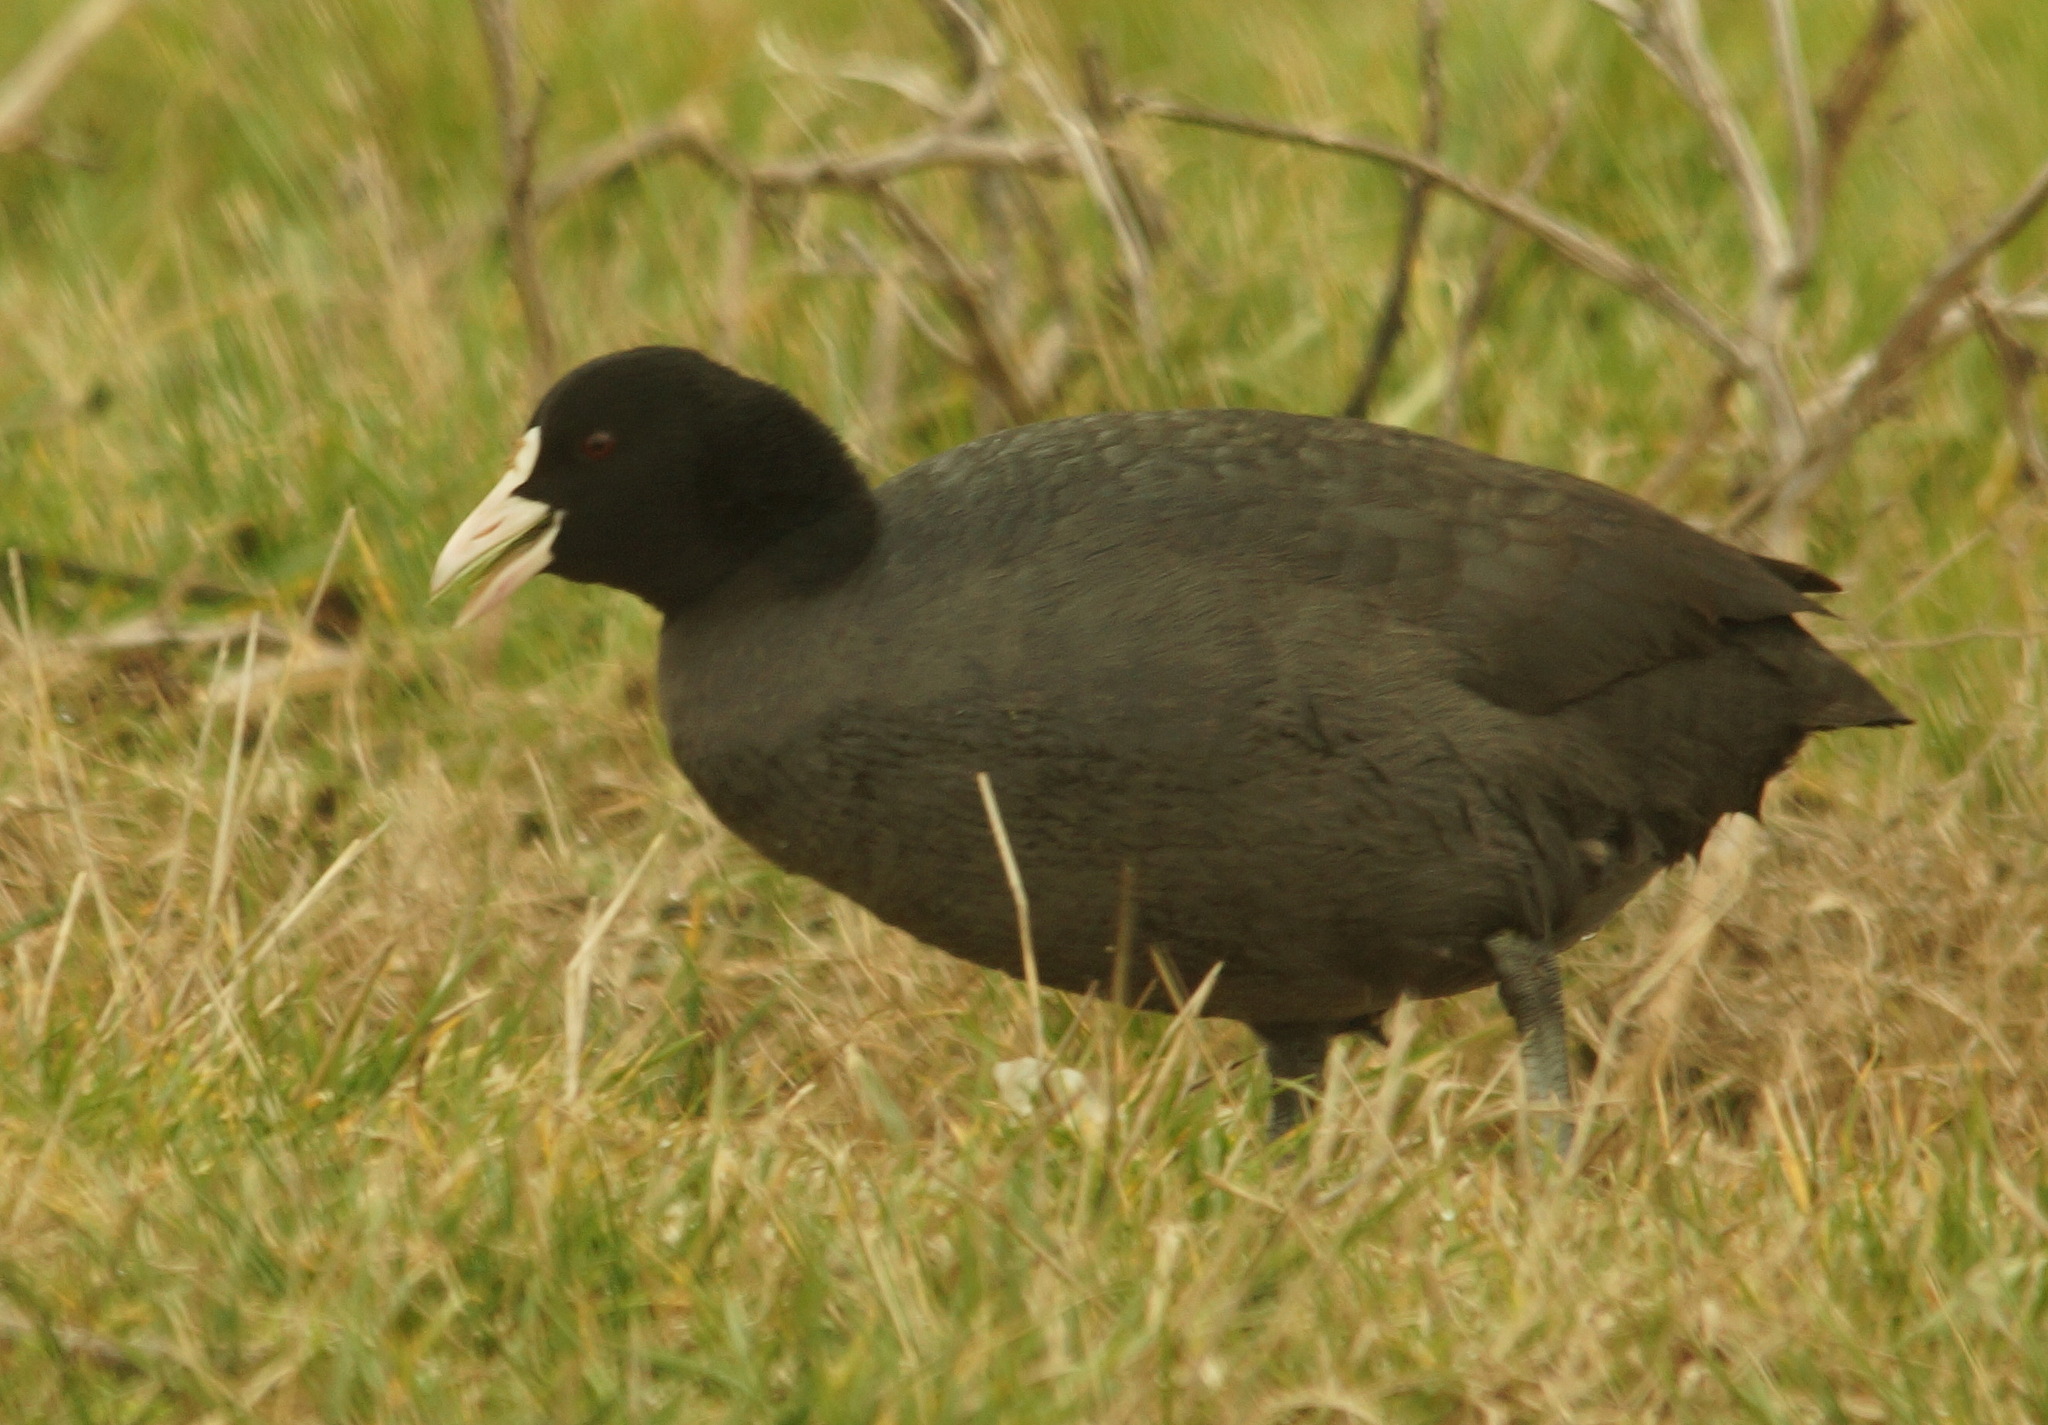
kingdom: Animalia
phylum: Chordata
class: Aves
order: Gruiformes
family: Rallidae
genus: Fulica
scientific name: Fulica atra
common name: Eurasian coot
